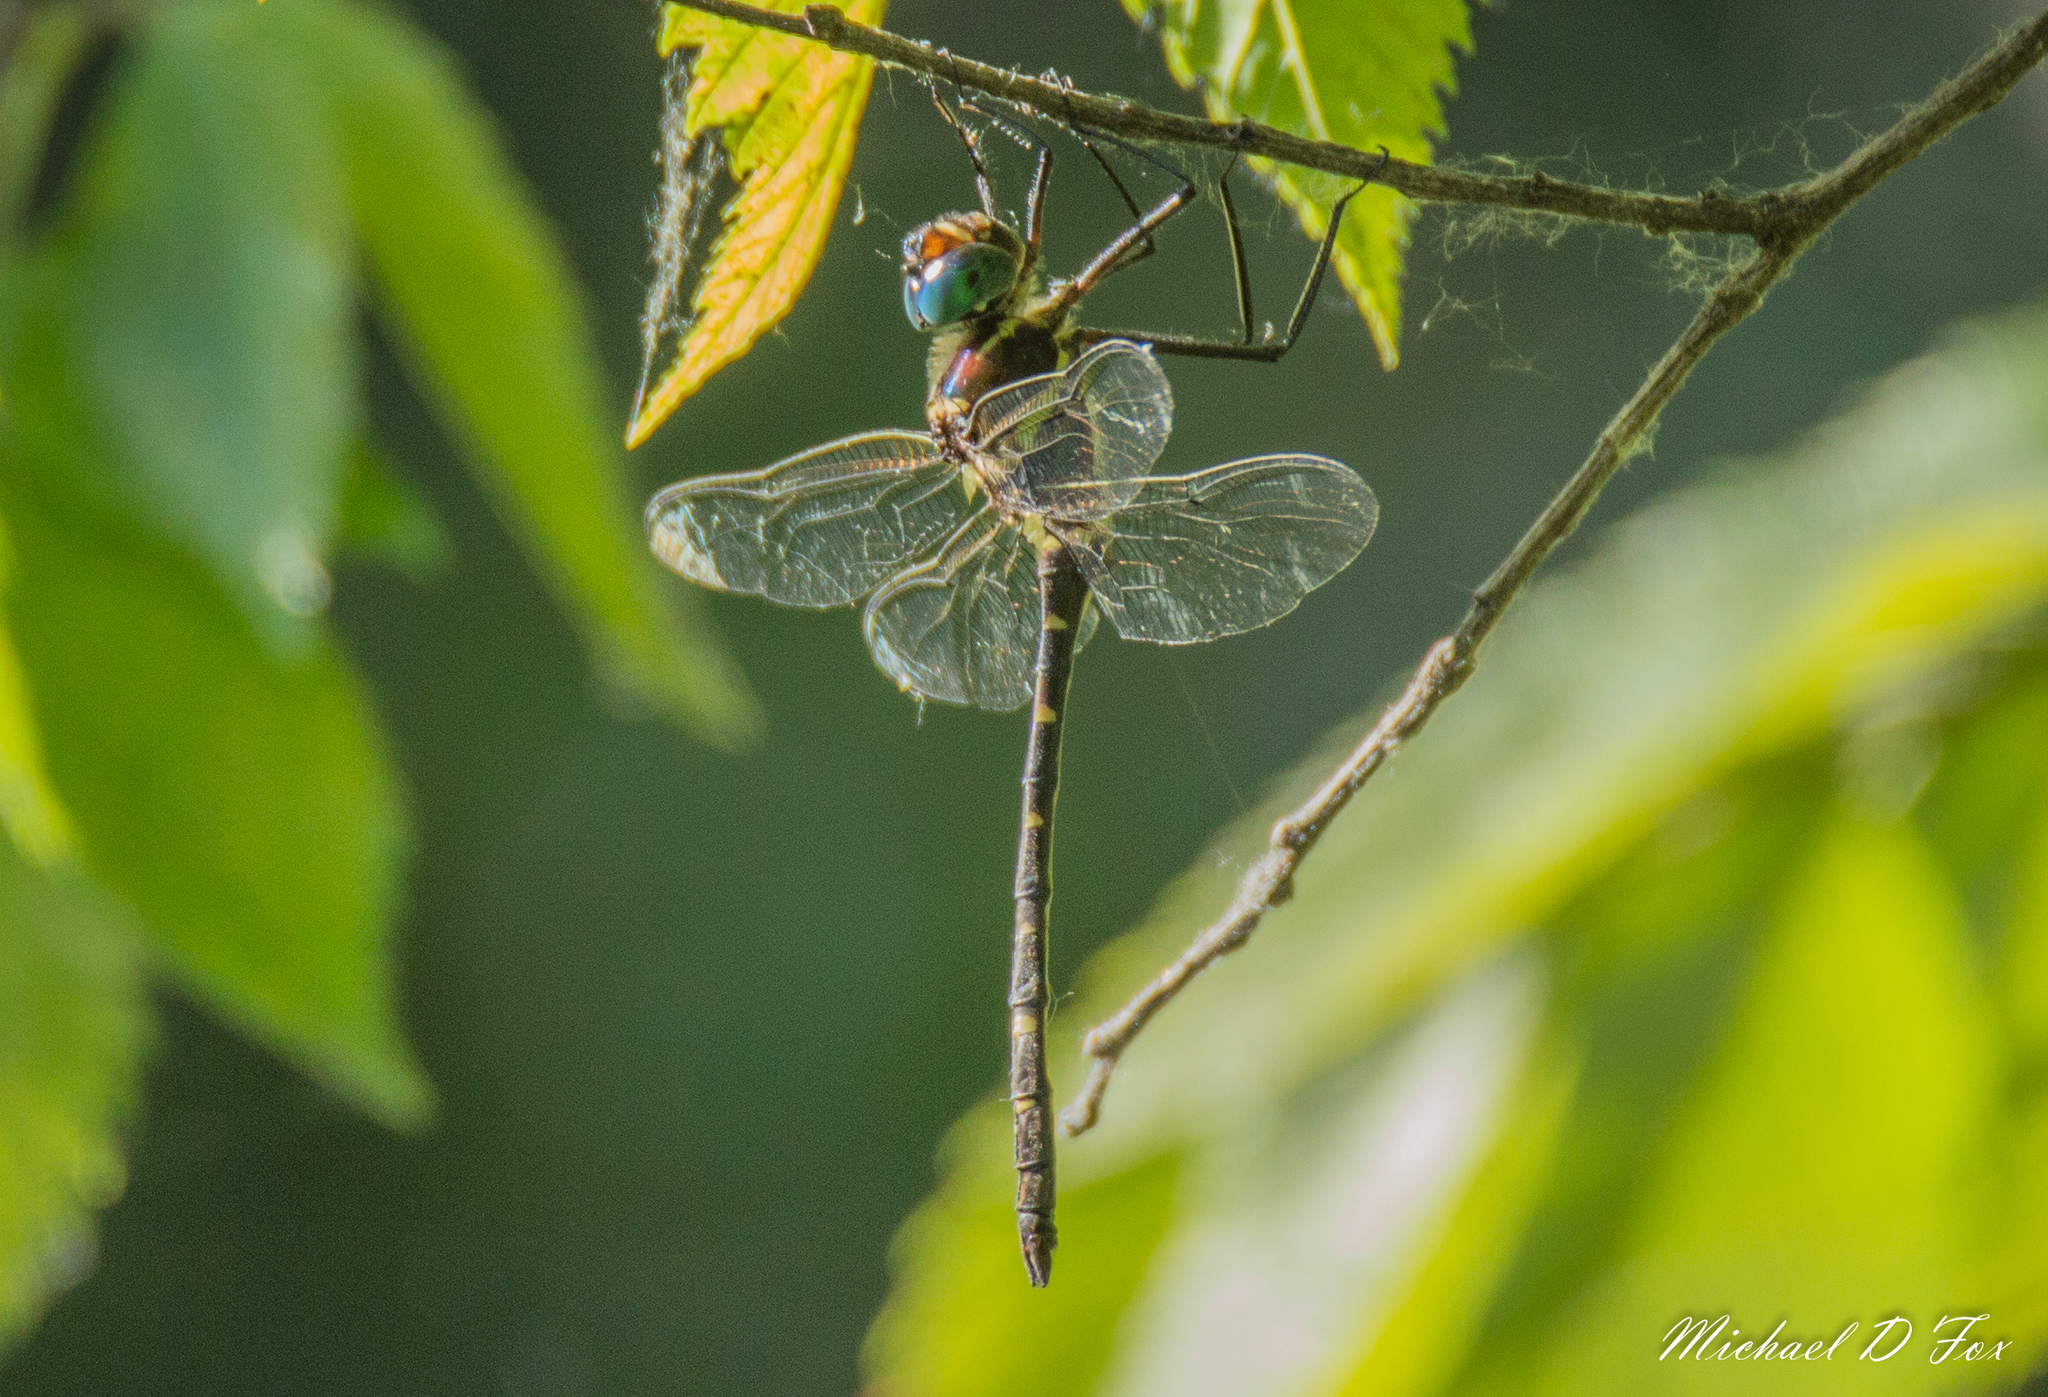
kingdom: Animalia
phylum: Arthropoda
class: Insecta
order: Odonata
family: Macromiidae
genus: Macromia
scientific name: Macromia illinoiensis
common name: Swift river cruiser
